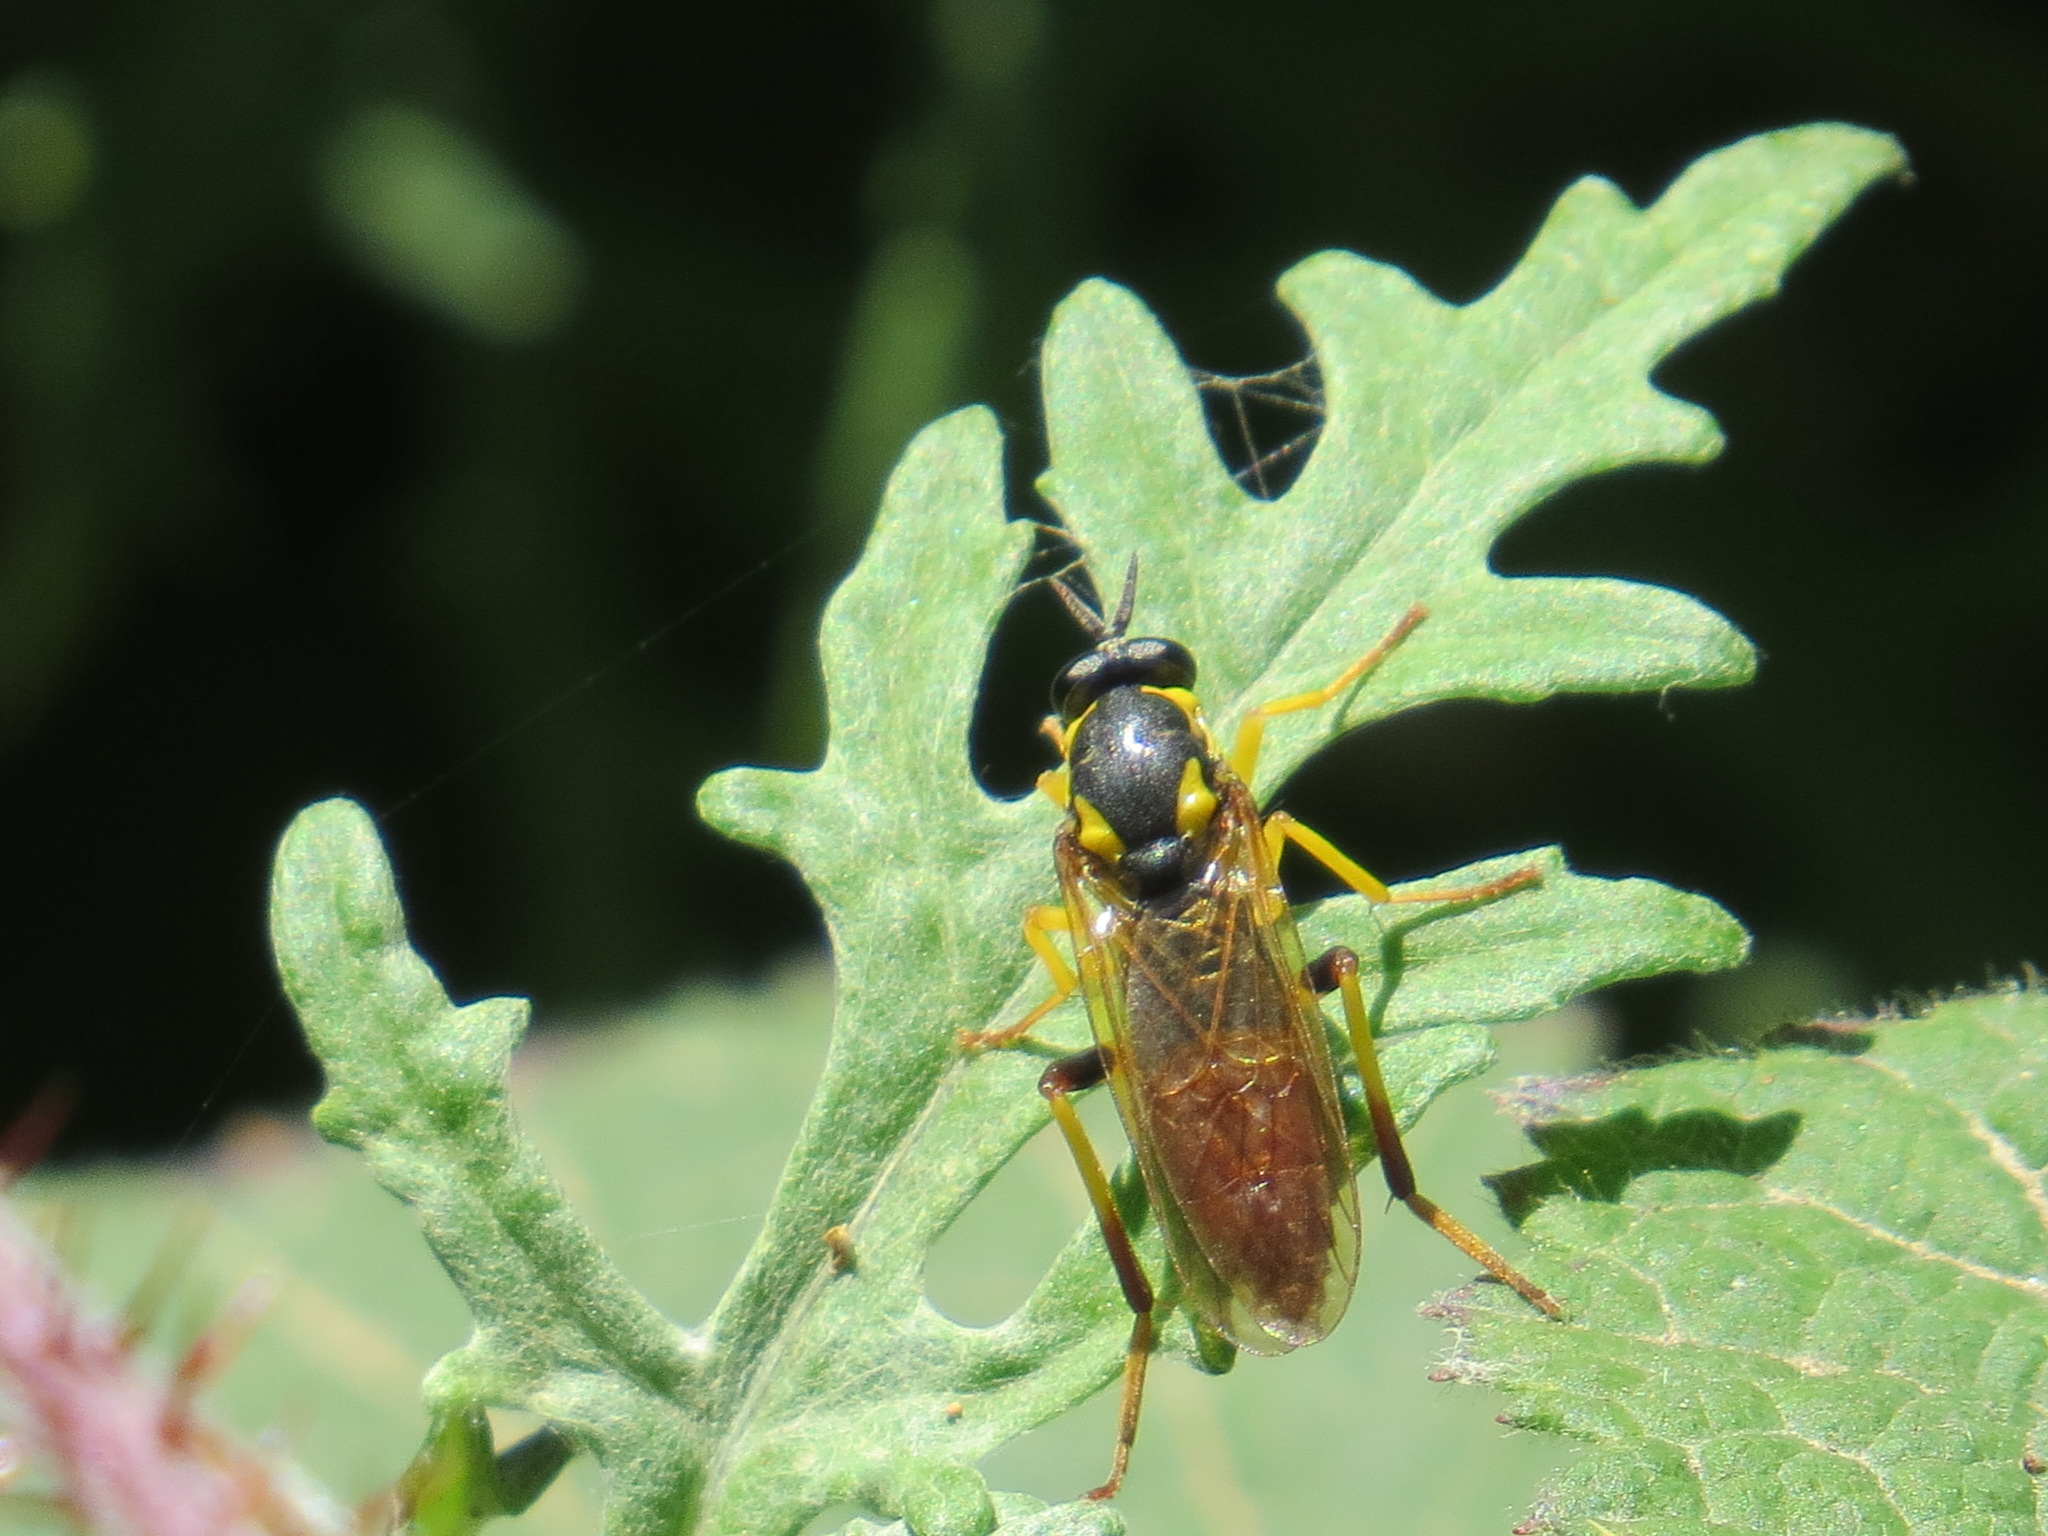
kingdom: Animalia
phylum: Arthropoda
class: Insecta
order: Diptera
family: Xylomyidae
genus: Xylomya
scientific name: Xylomya parens
